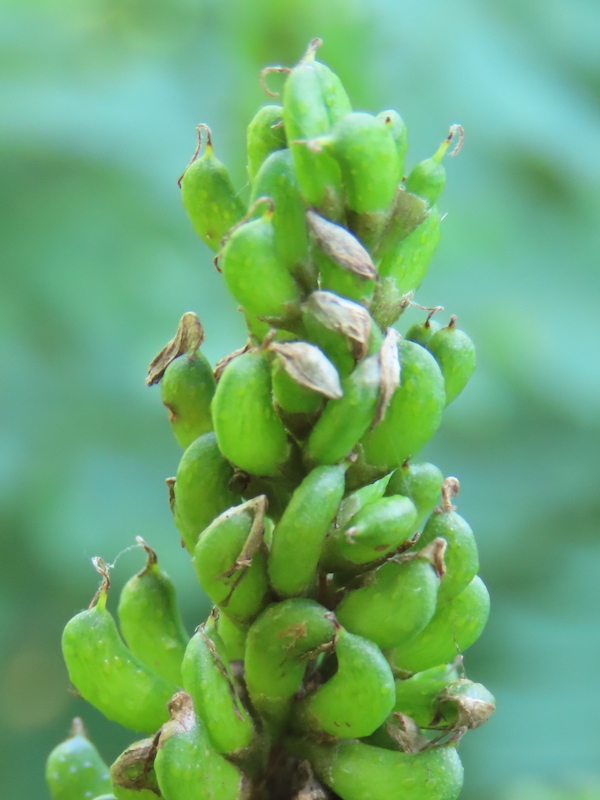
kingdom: Plantae
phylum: Tracheophyta
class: Magnoliopsida
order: Fabales
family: Fabaceae
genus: Amorpha
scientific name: Amorpha fruticosa
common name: False indigo
